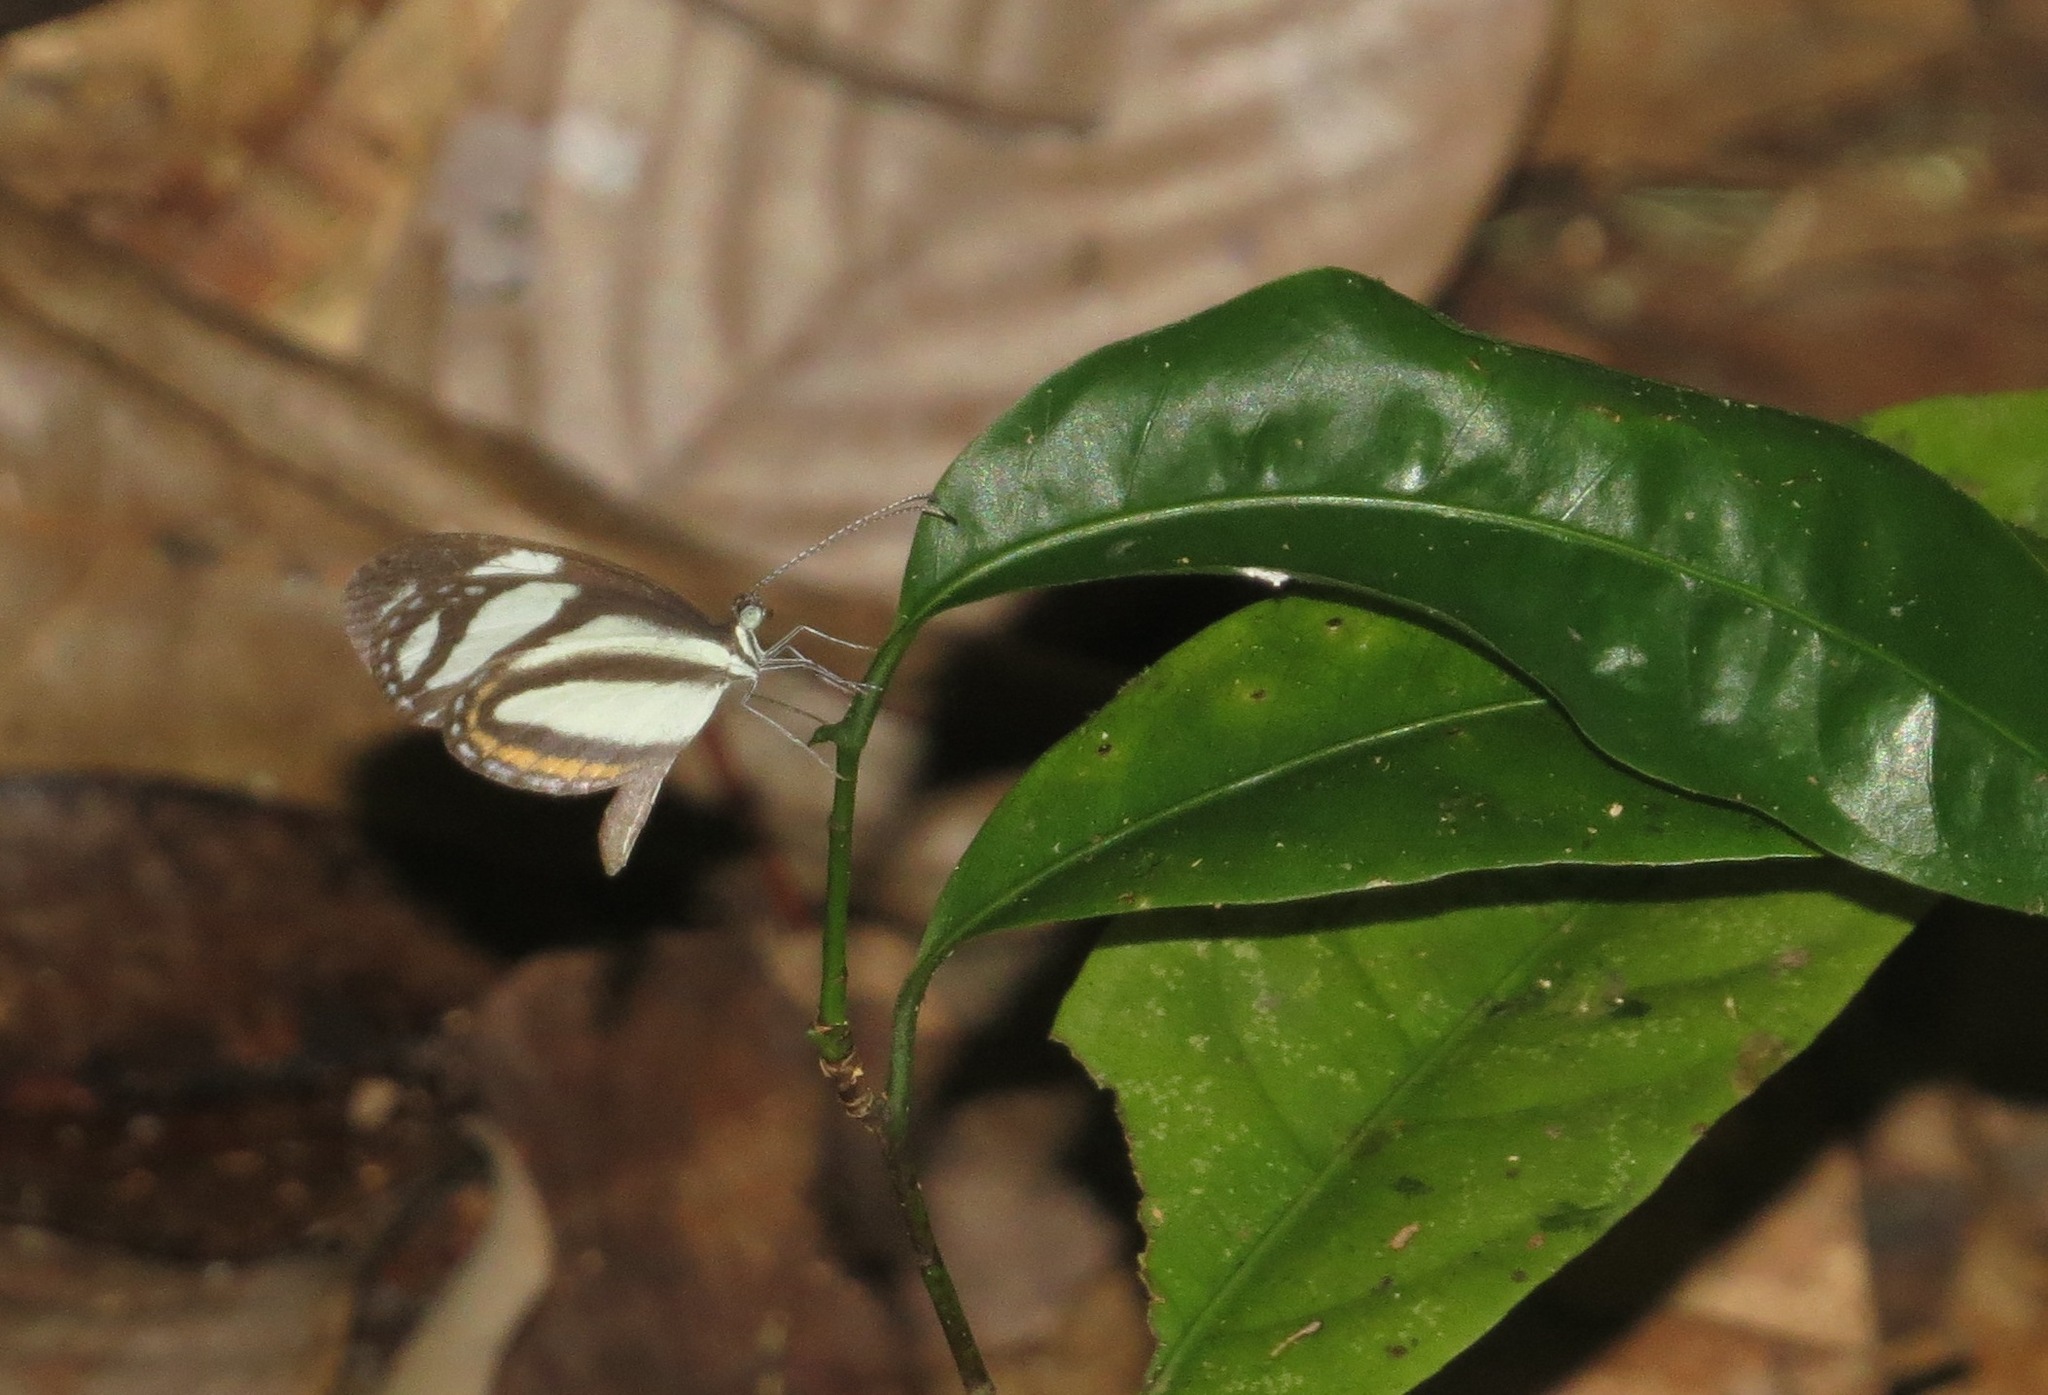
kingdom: Animalia
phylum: Arthropoda
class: Insecta
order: Lepidoptera
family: Pieridae
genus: Moschoneura
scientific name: Moschoneura pinthous
